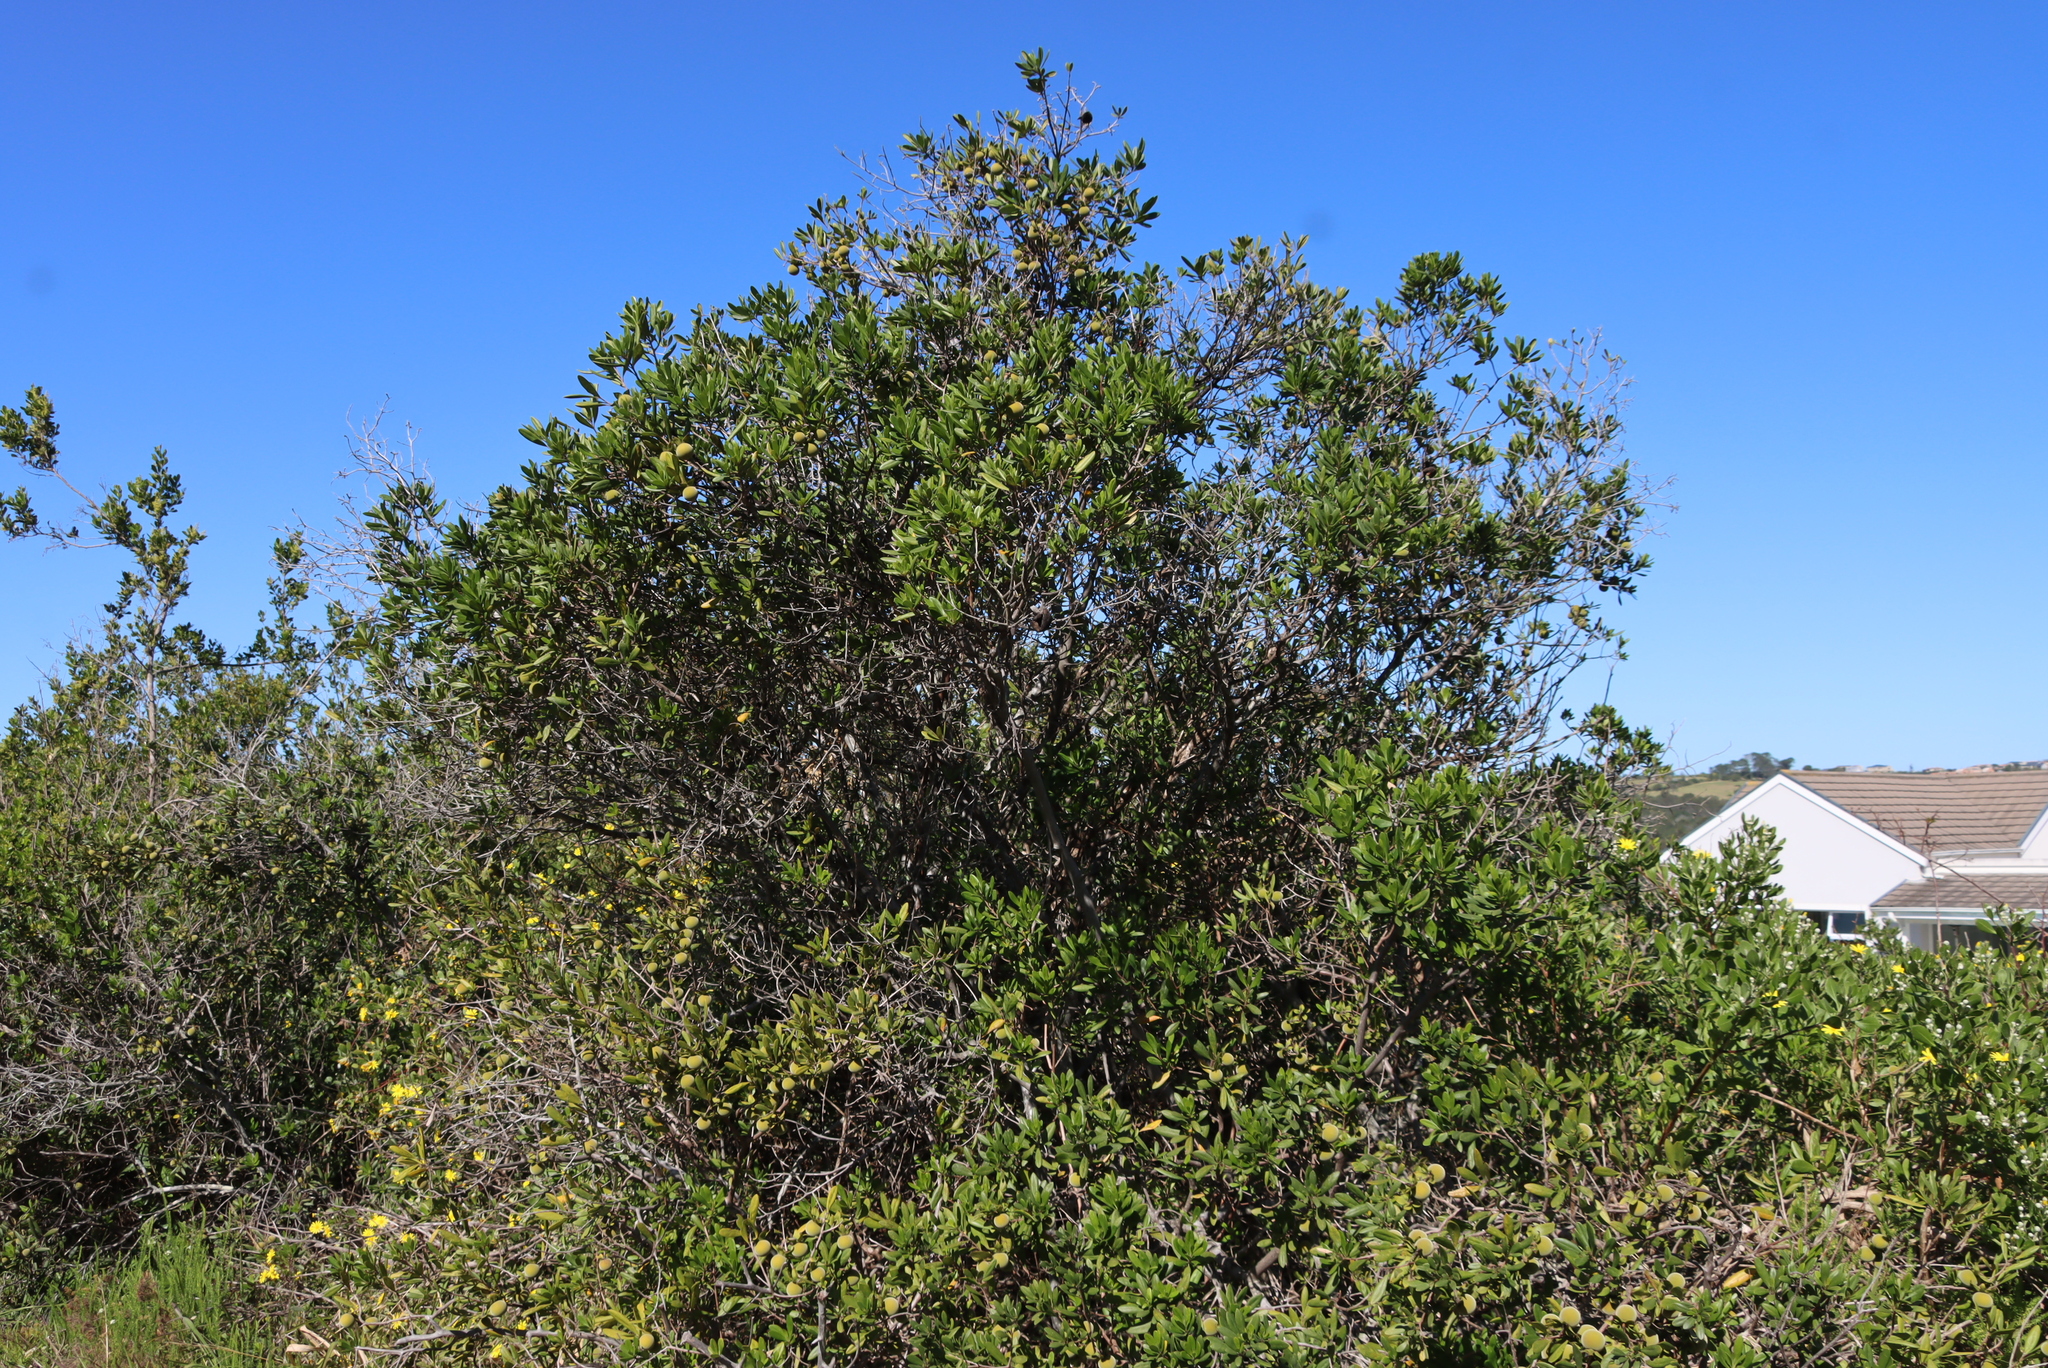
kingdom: Plantae
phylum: Tracheophyta
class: Magnoliopsida
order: Ericales
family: Ebenaceae
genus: Diospyros
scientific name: Diospyros dichrophylla
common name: Common star-apple
